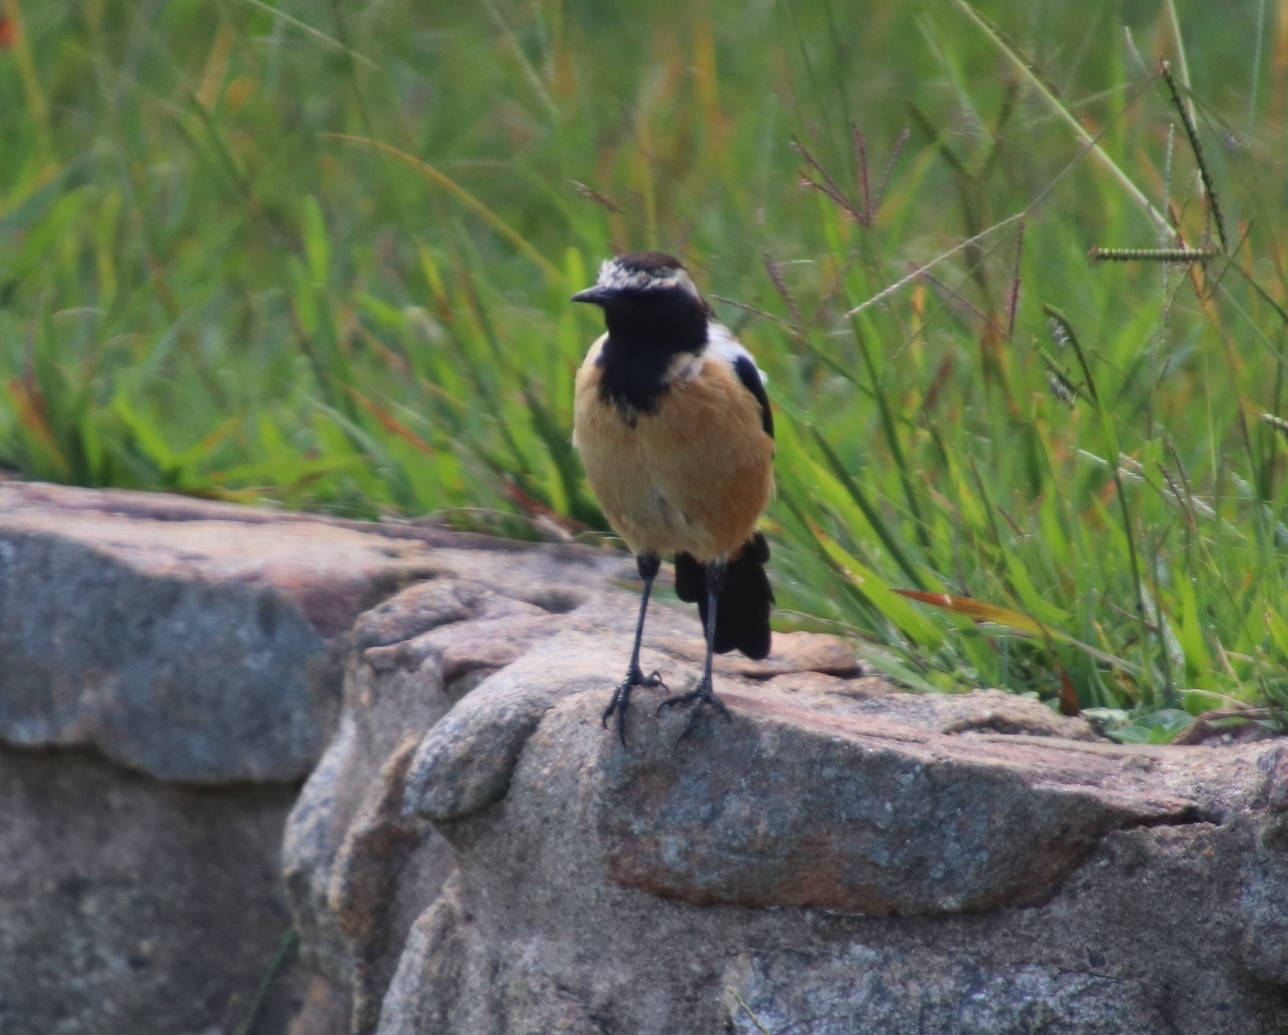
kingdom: Animalia
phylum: Chordata
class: Aves
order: Passeriformes
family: Muscicapidae
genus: Campicoloides
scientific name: Campicoloides bifasciatus
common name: Buff-streaked chat
